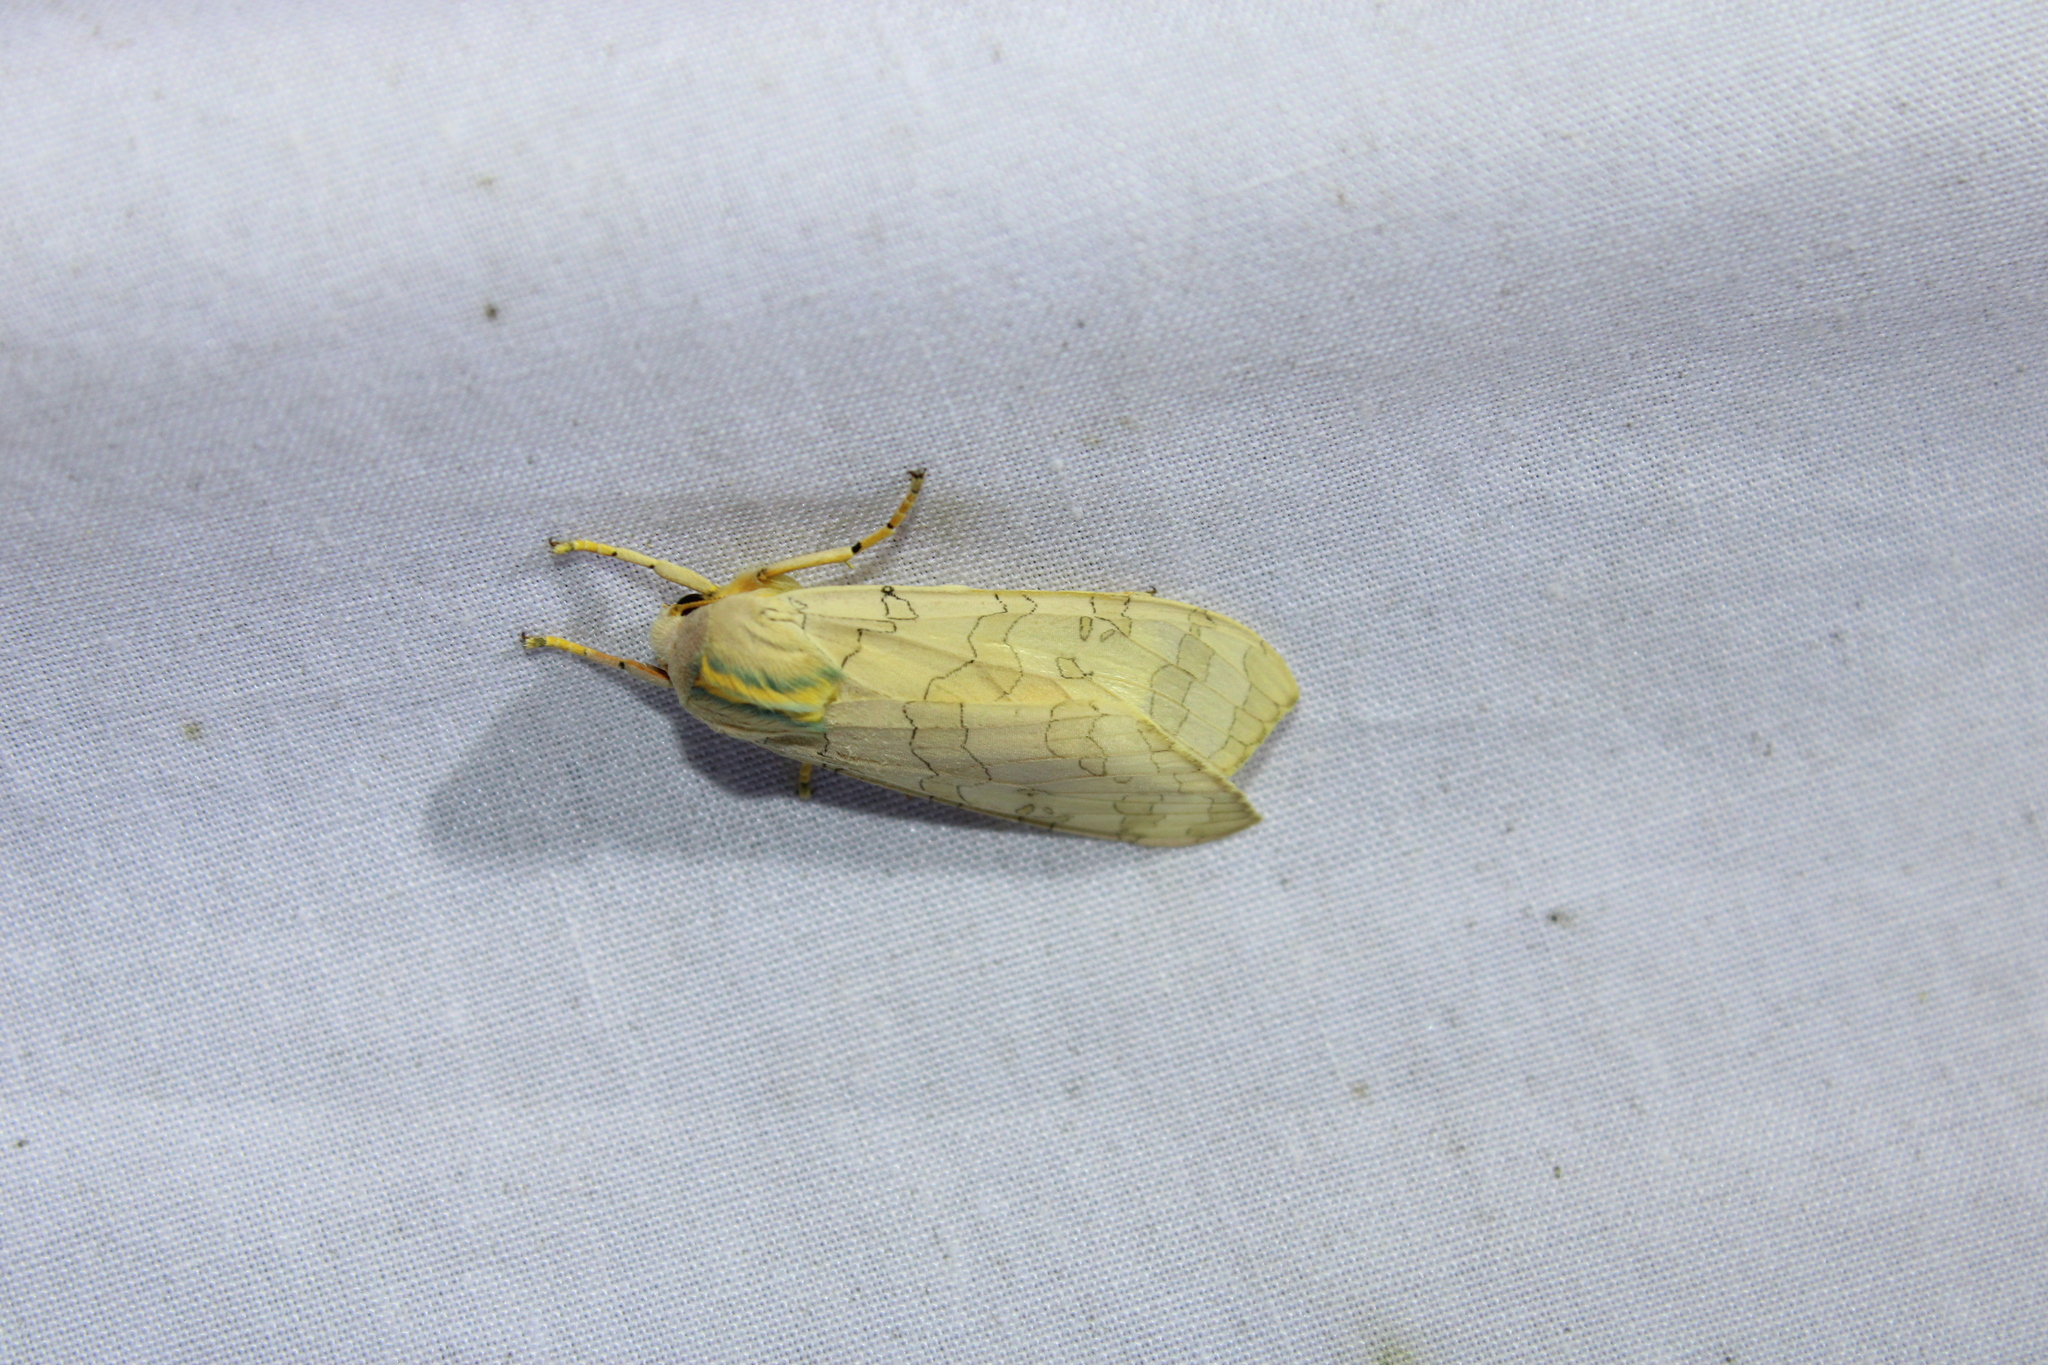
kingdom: Animalia
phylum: Arthropoda
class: Insecta
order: Lepidoptera
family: Erebidae
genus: Halysidota
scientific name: Halysidota
